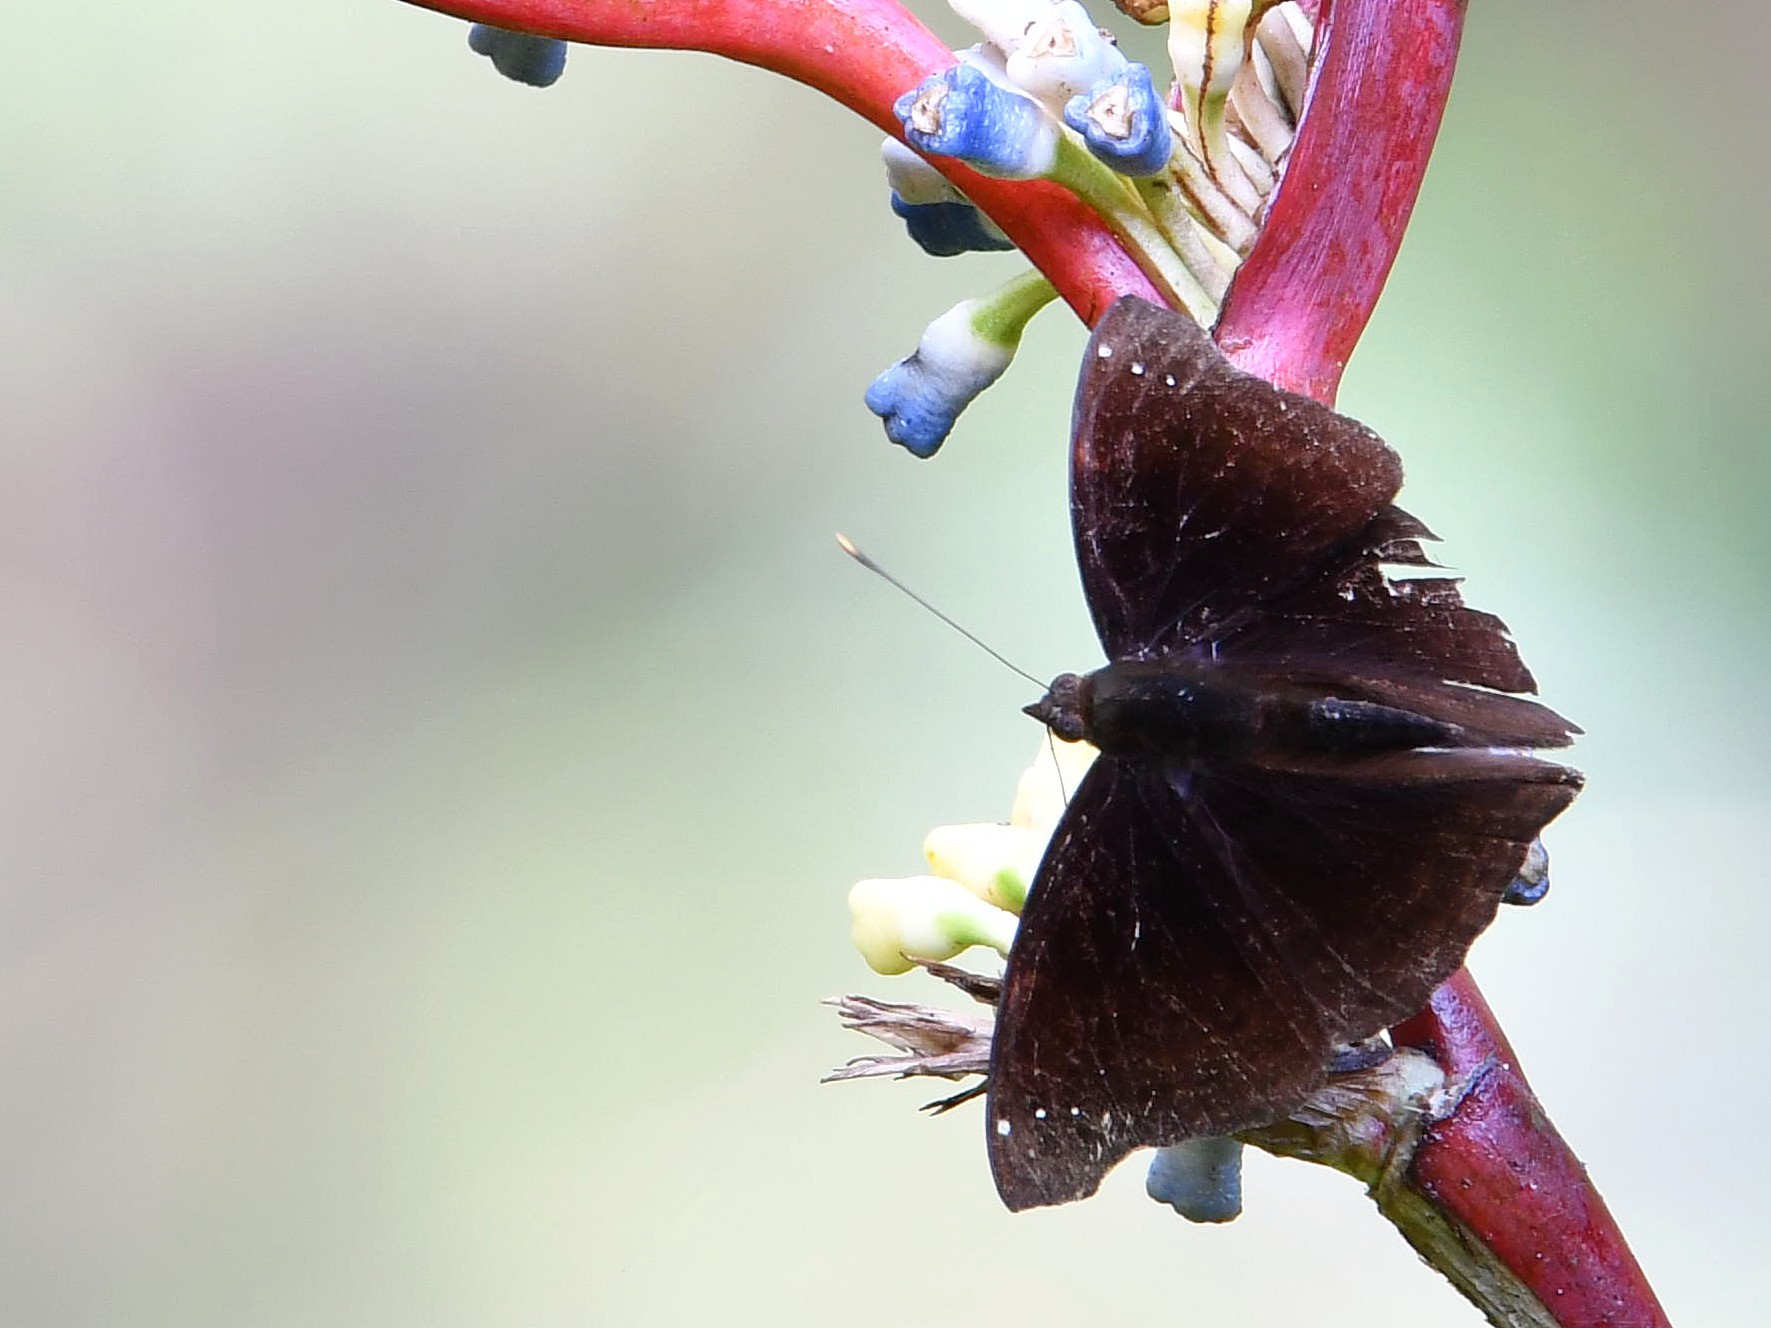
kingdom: Animalia
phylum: Arthropoda
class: Insecta
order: Lepidoptera
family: Nymphalidae
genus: Apatura
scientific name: Apatura Rohana spec
